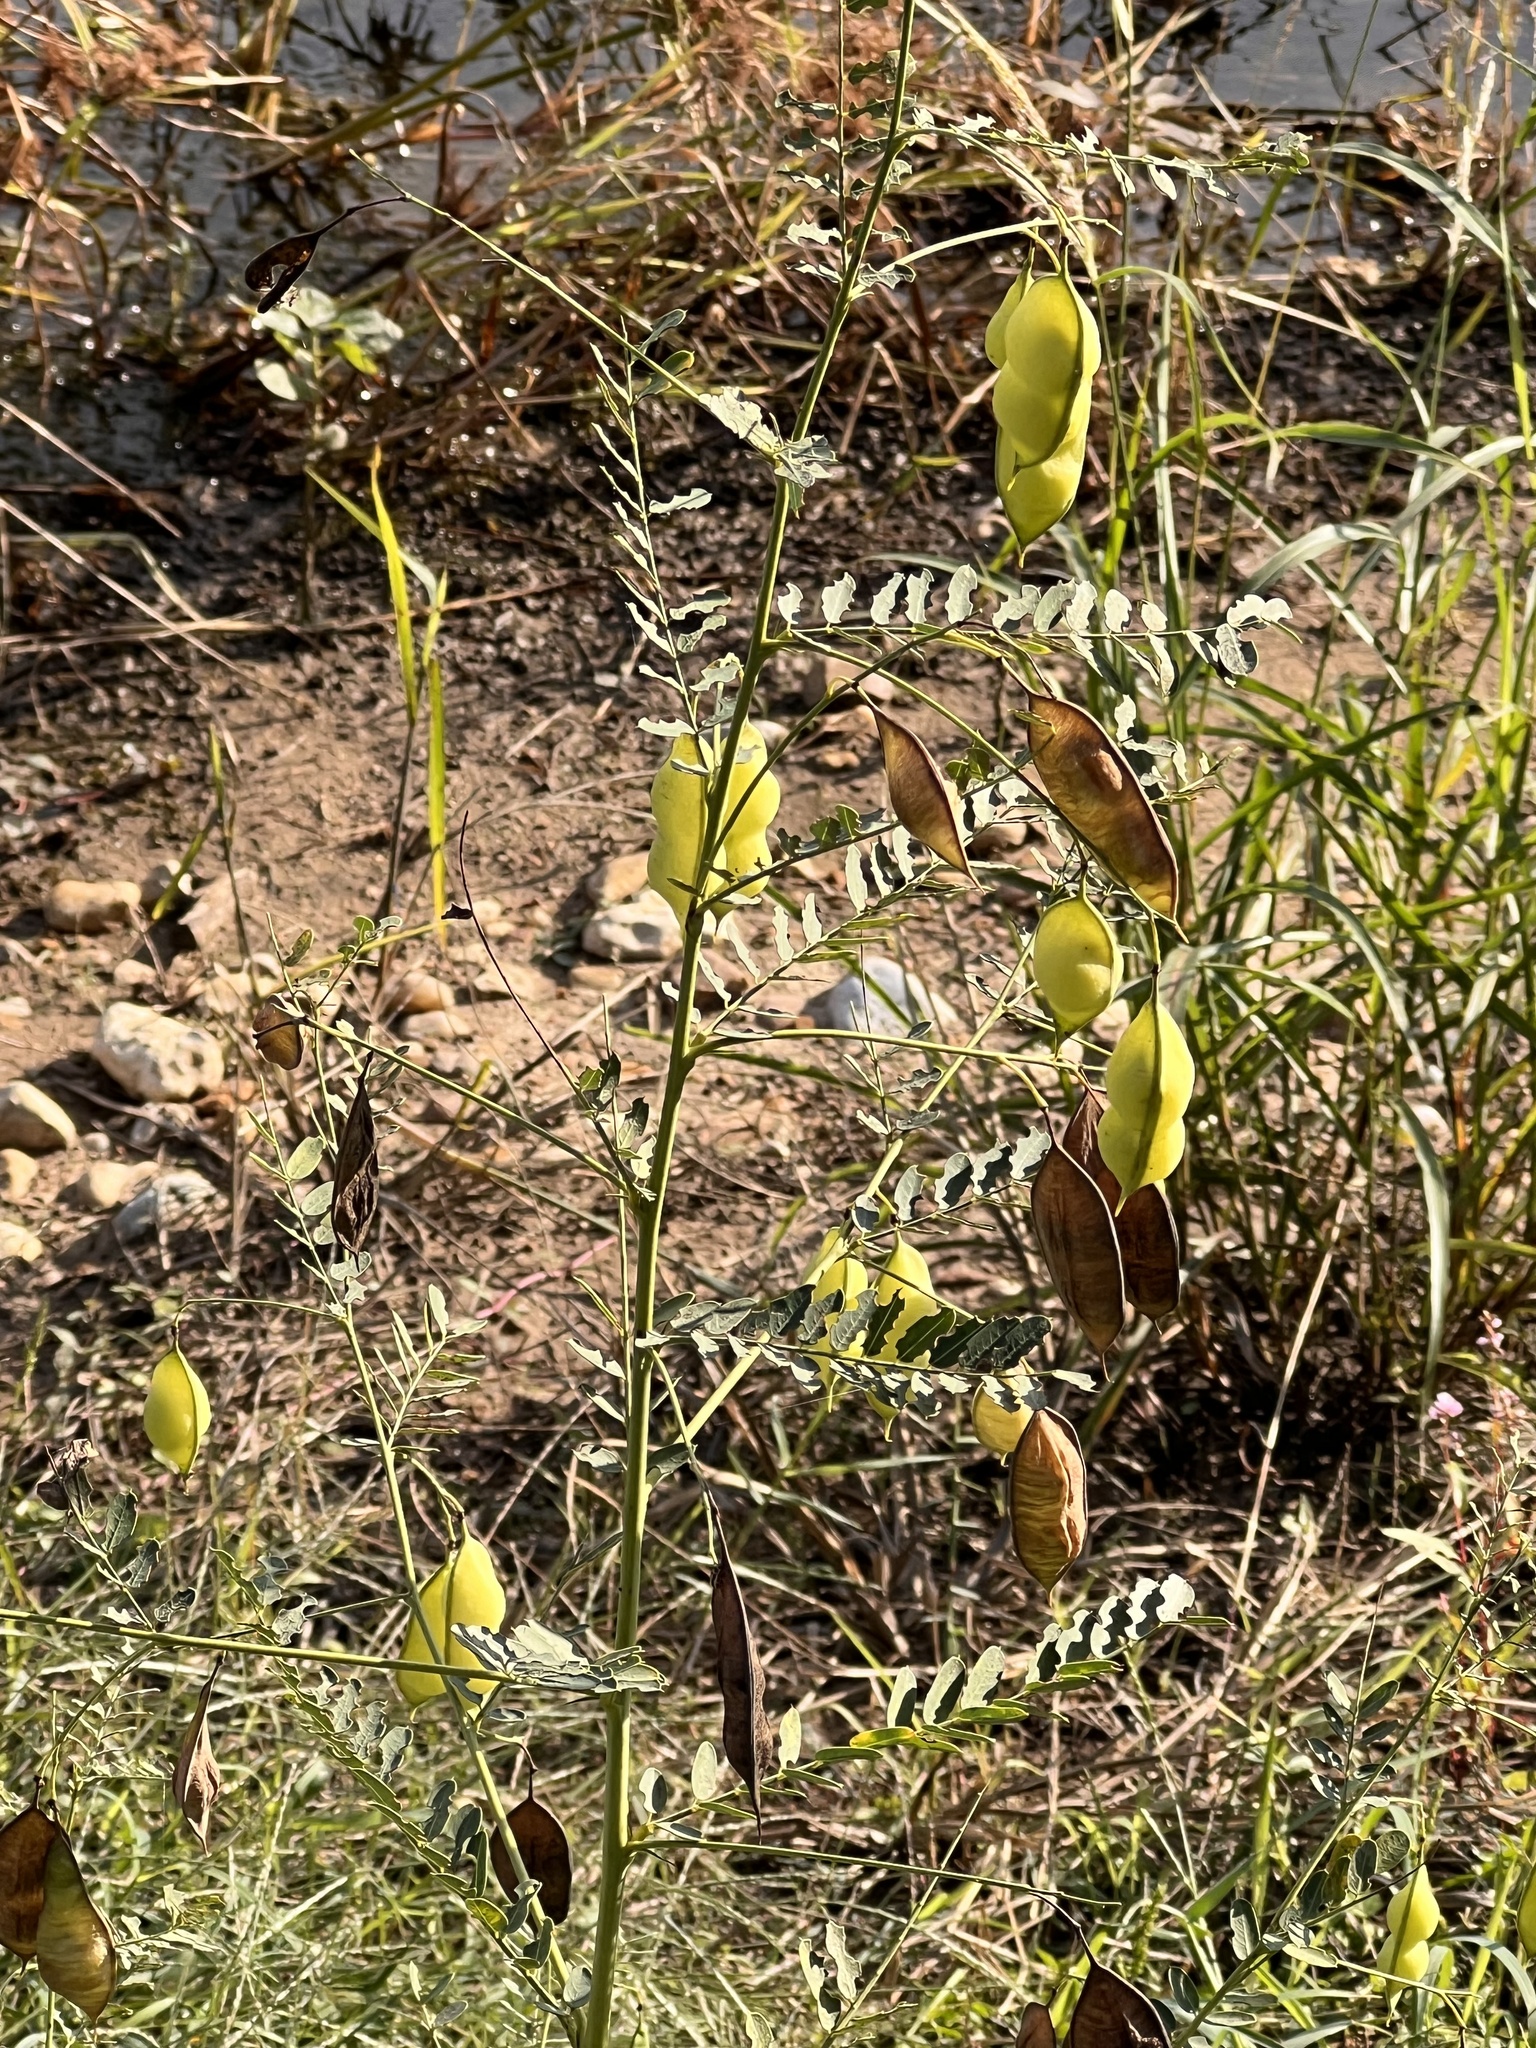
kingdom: Plantae
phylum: Tracheophyta
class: Magnoliopsida
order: Fabales
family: Fabaceae
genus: Sesbania
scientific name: Sesbania vesicaria
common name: Bagpod
